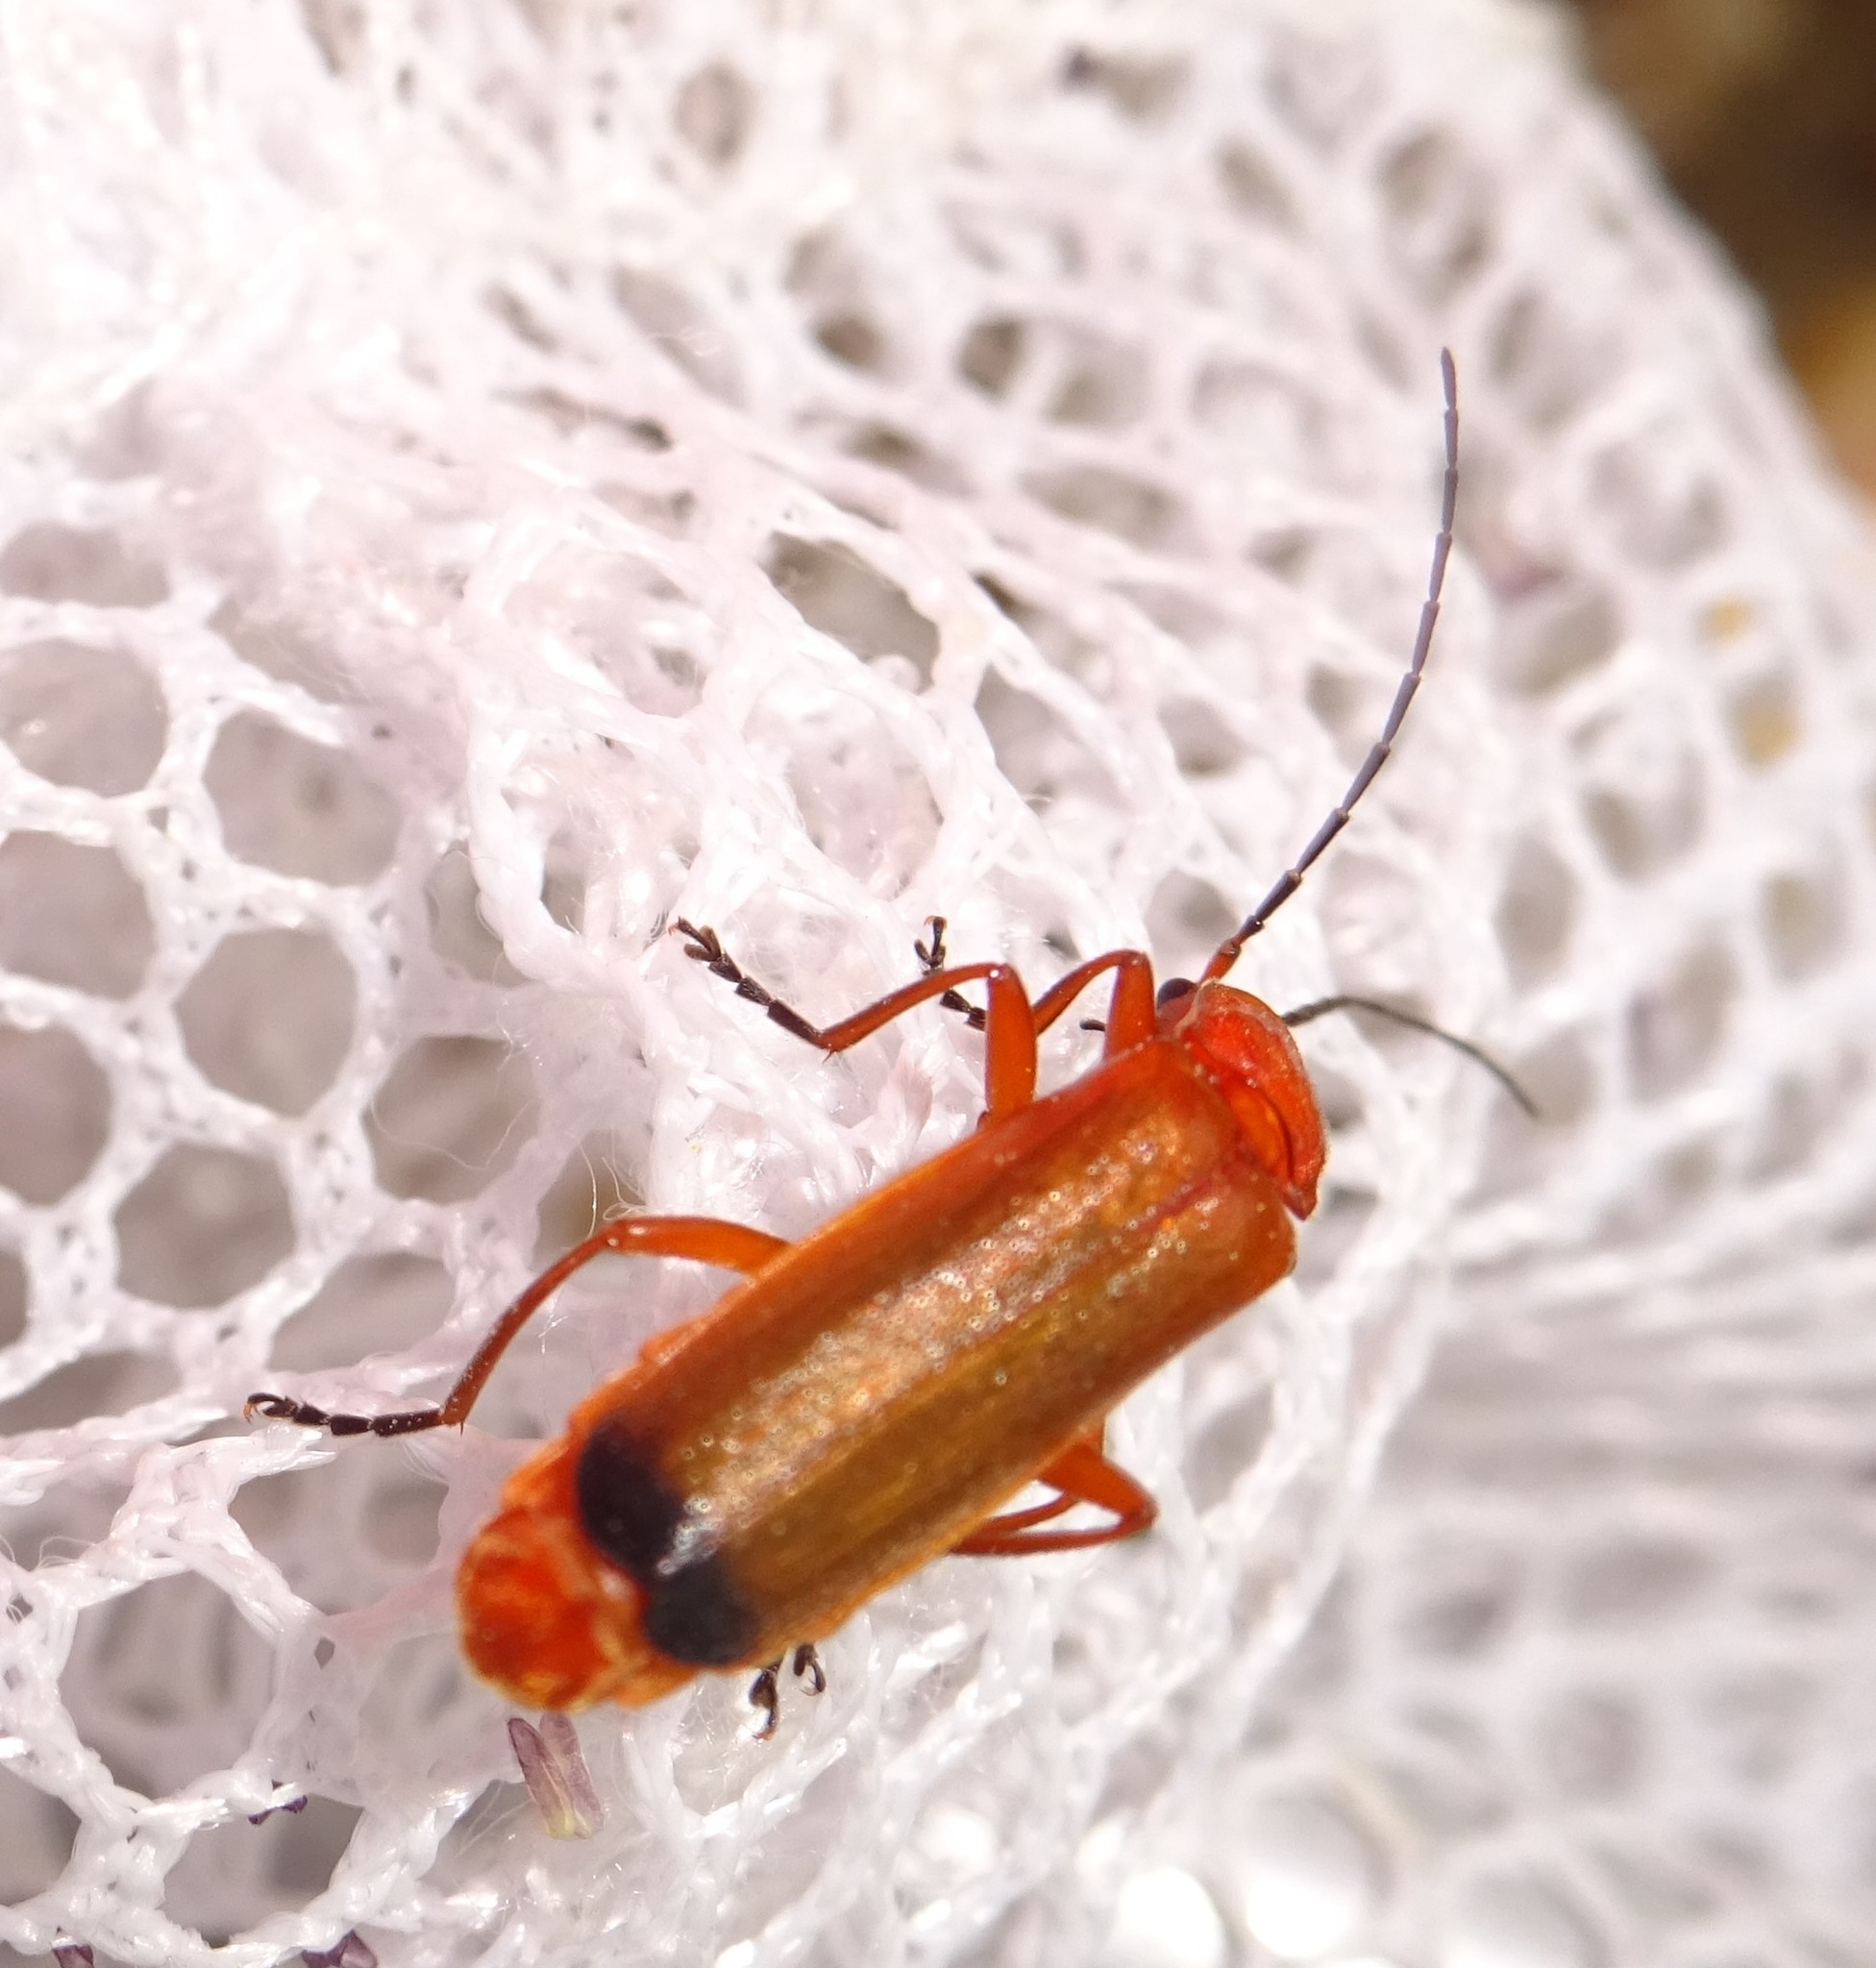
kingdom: Animalia
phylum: Arthropoda
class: Insecta
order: Coleoptera
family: Cantharidae
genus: Rhagonycha
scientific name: Rhagonycha fulva
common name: Common red soldier beetle
